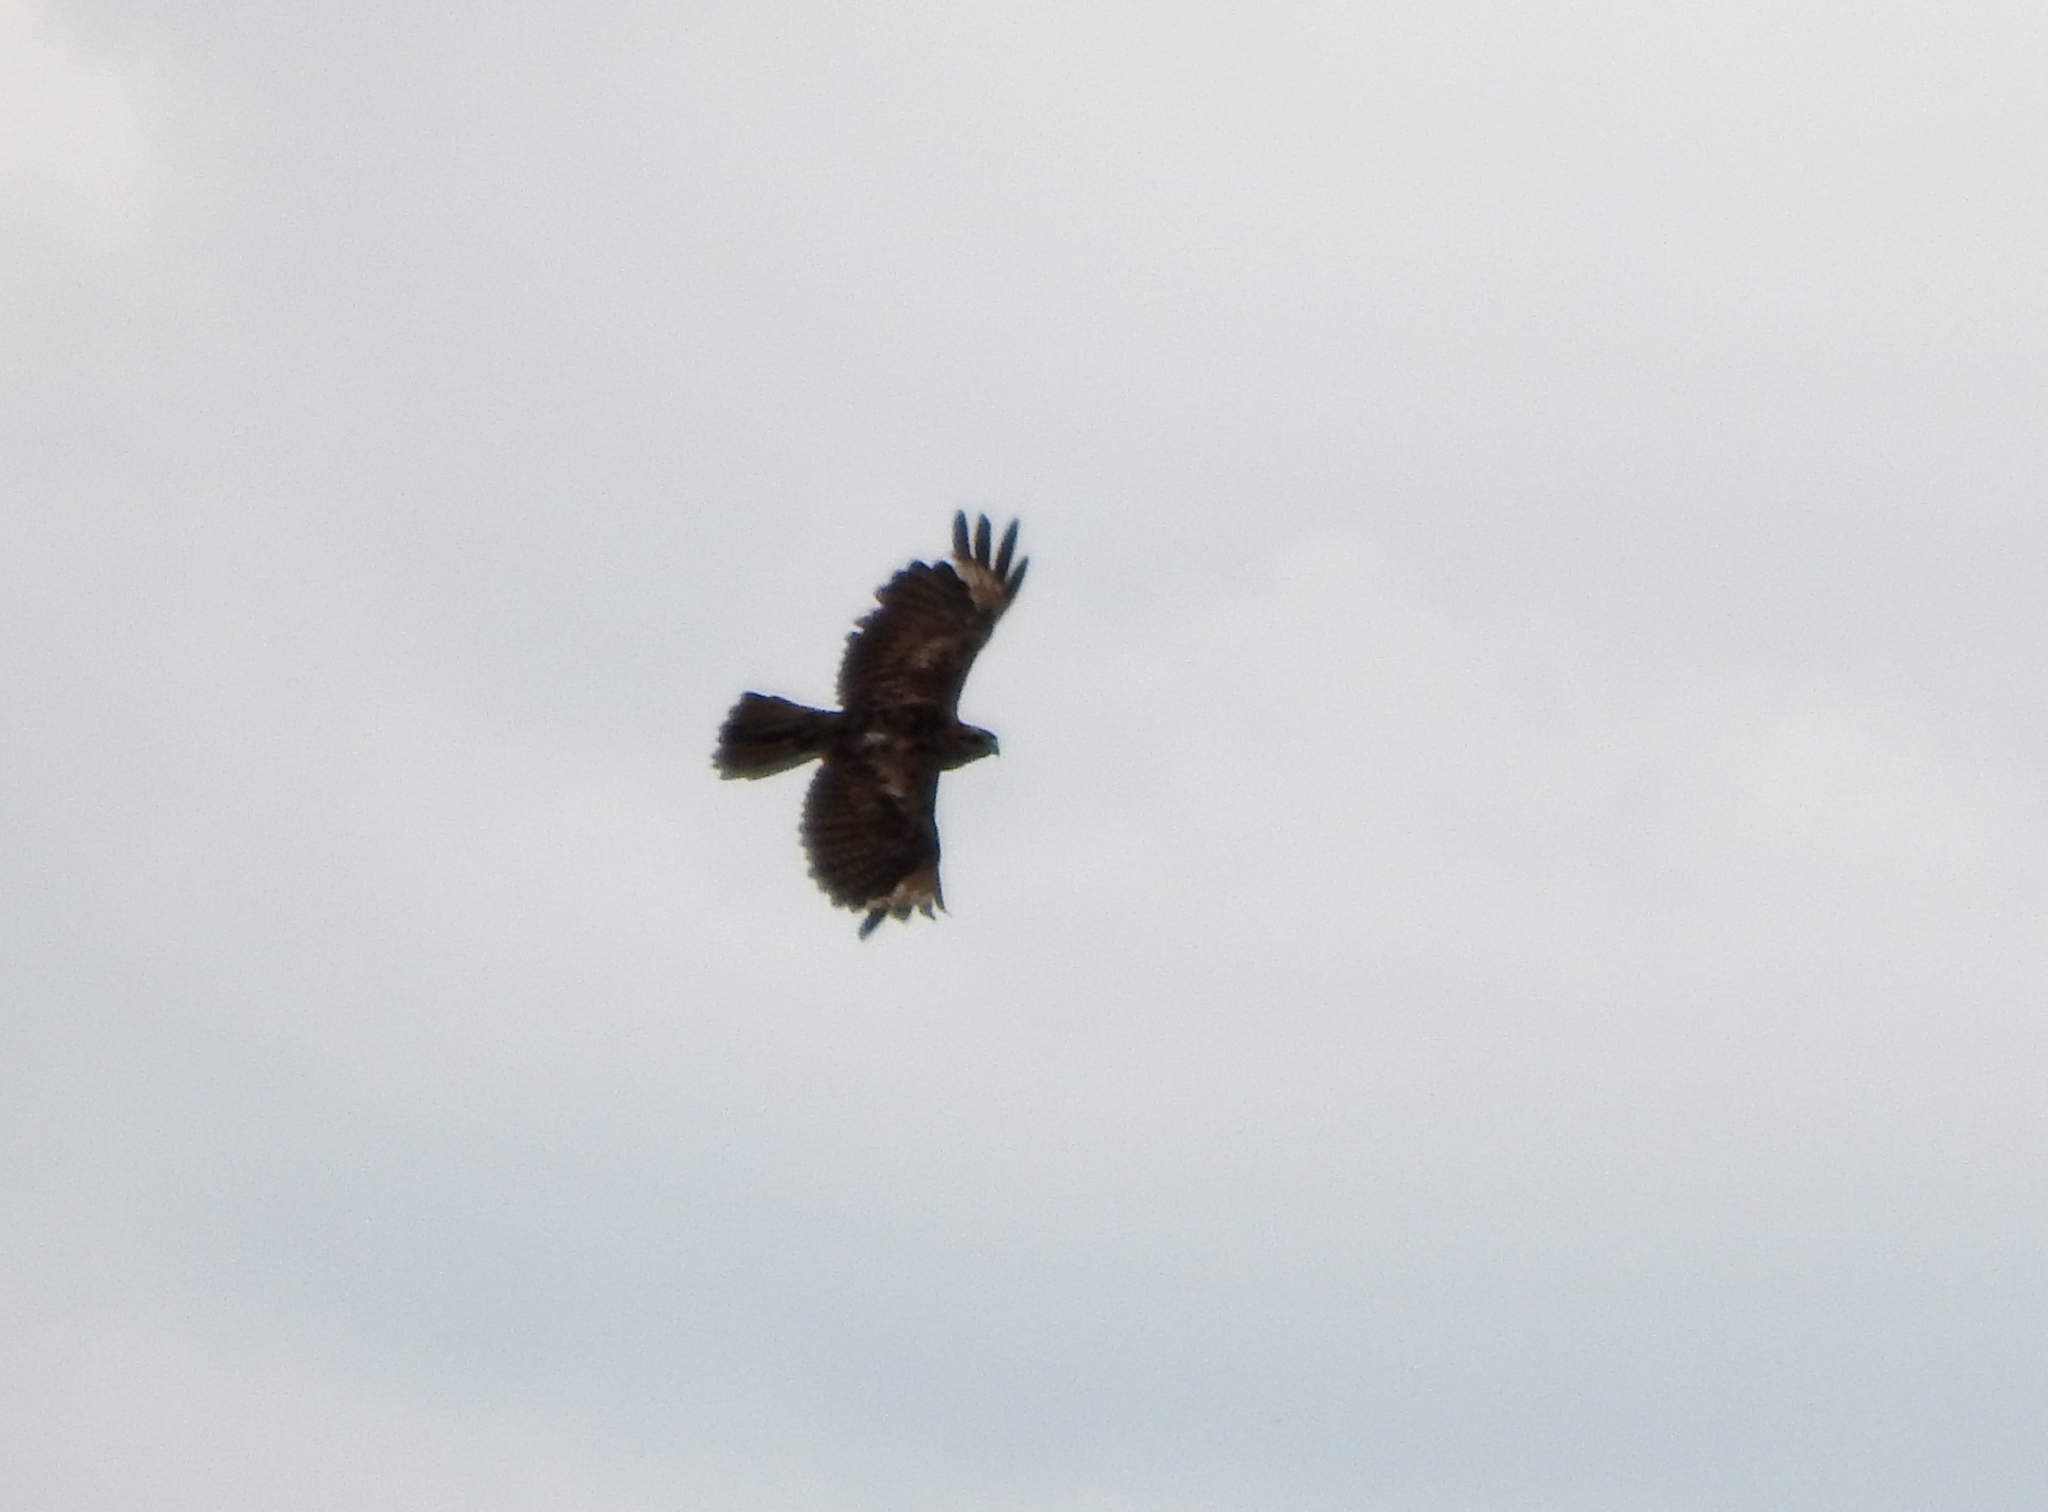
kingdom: Animalia
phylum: Chordata
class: Aves
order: Accipitriformes
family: Accipitridae
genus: Buteo
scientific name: Buteo japonicus
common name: Eastern buzzard
